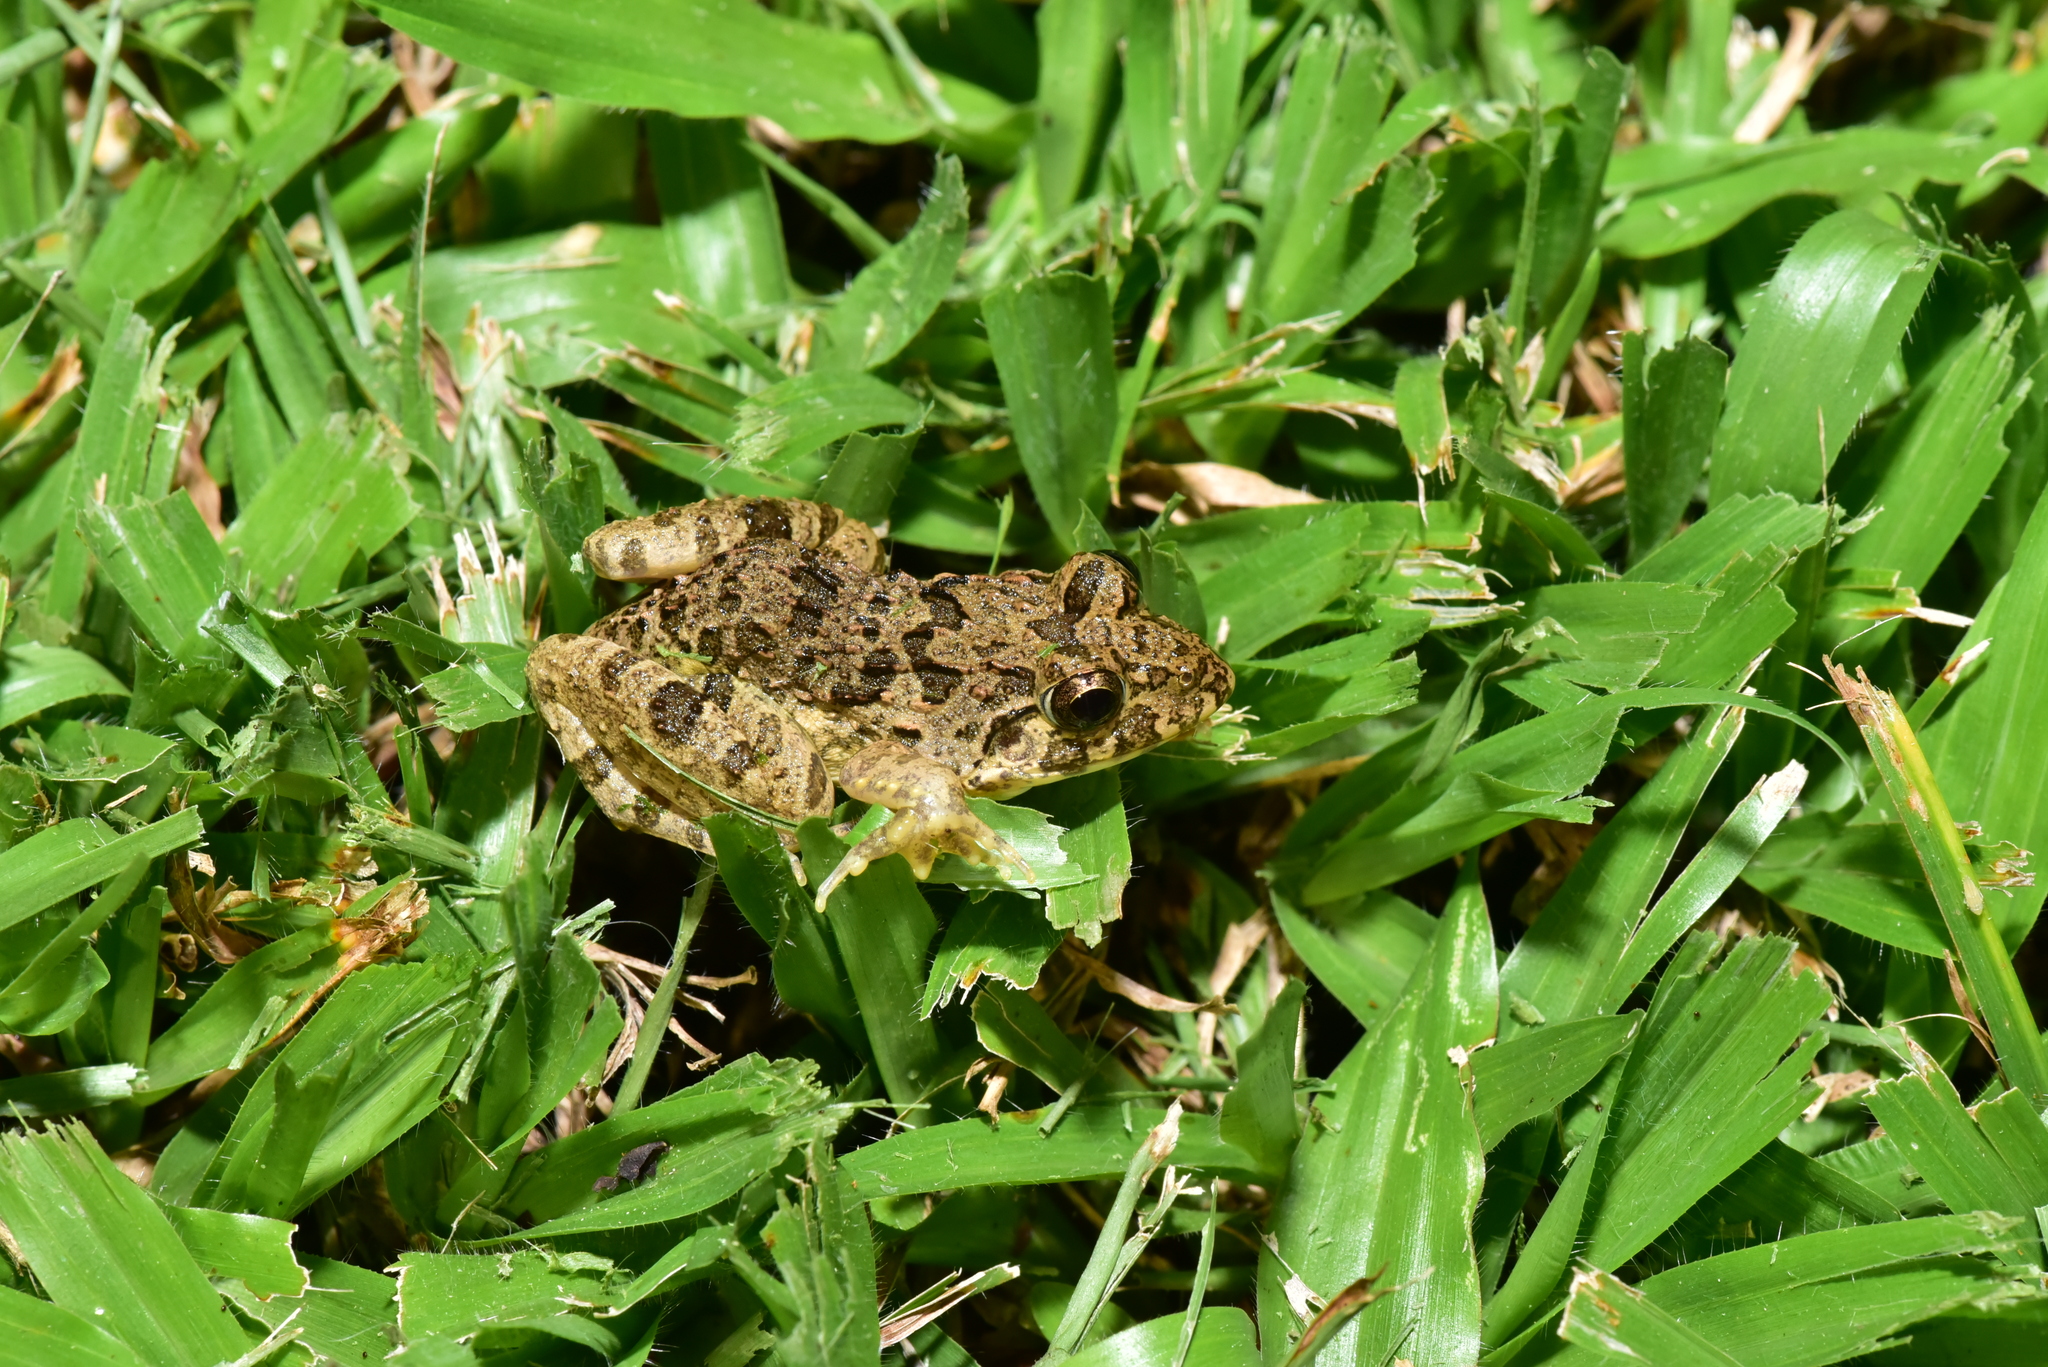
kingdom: Animalia
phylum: Chordata
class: Amphibia
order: Anura
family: Dicroglossidae
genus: Fejervarya
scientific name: Fejervarya limnocharis
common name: Asian grass frog/common pond frog/field frog/grass frog/indian rice frog
